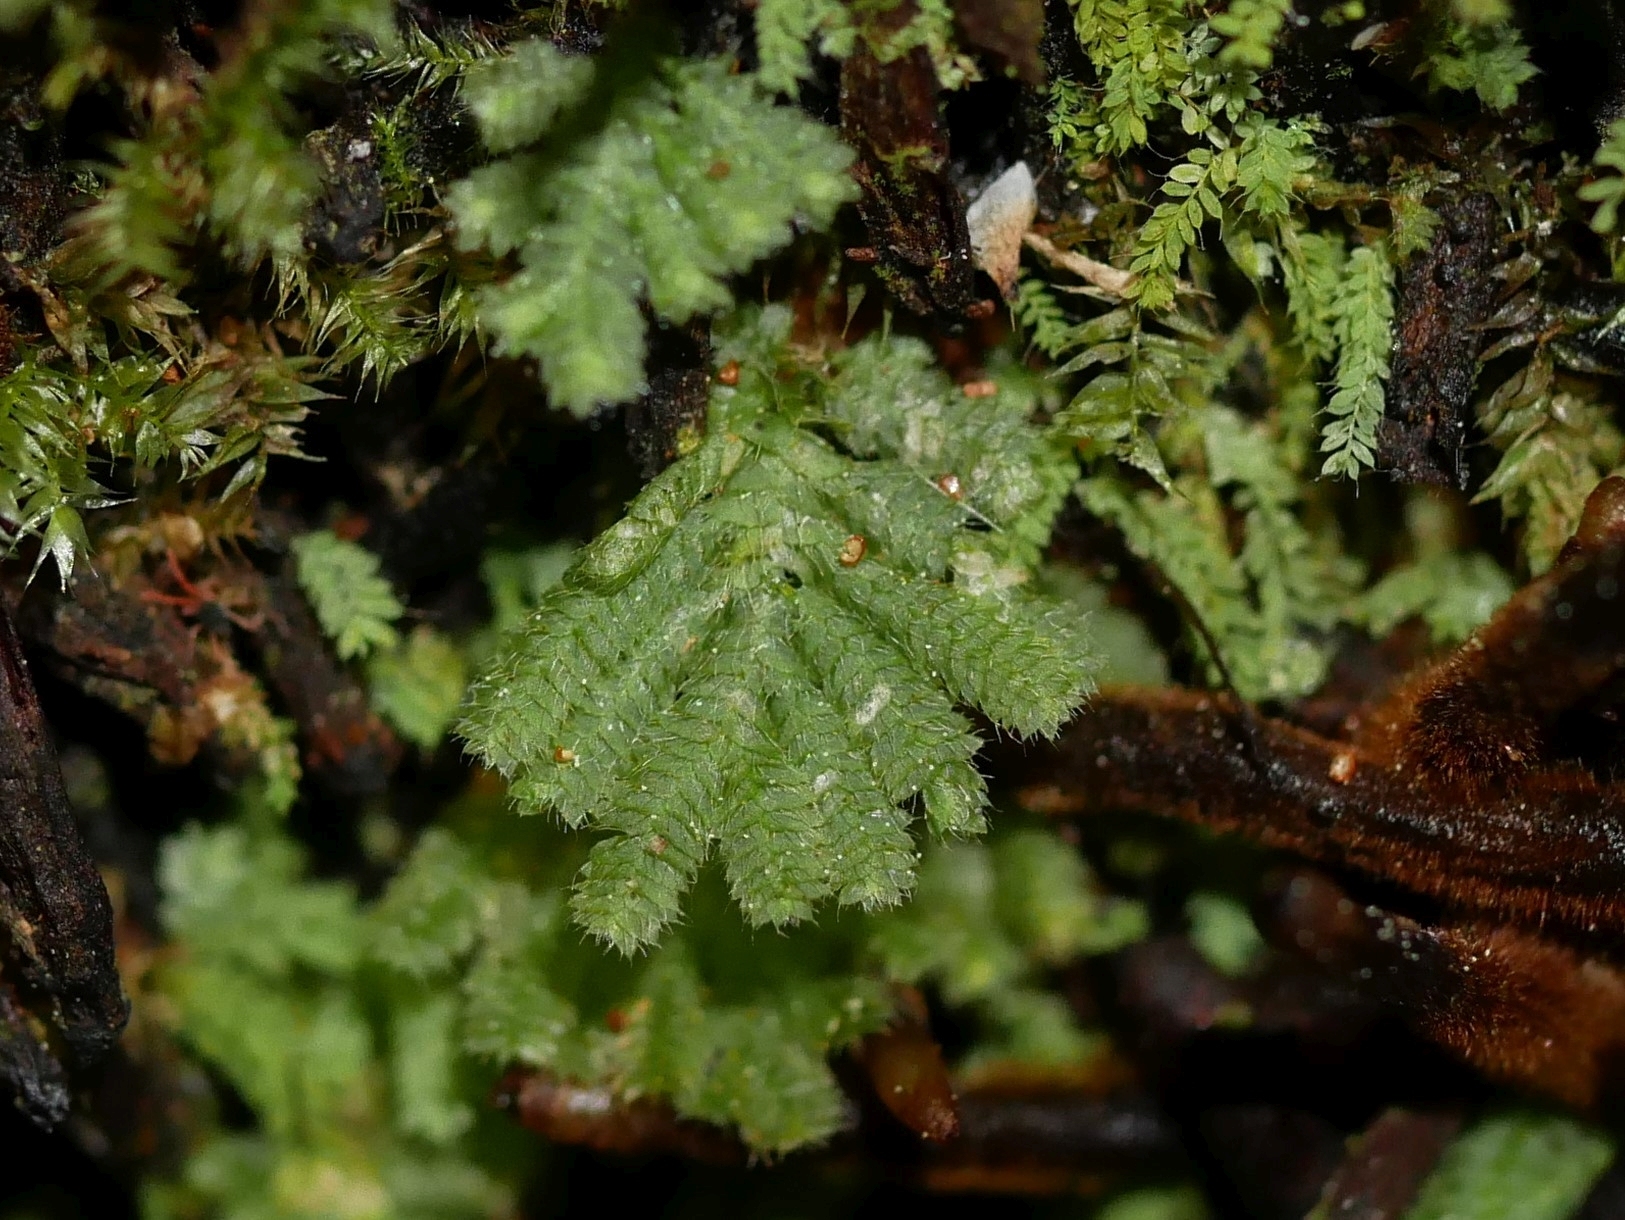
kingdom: Plantae
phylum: Bryophyta
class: Bryopsida
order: Hypopterygiales
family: Hypopterygiaceae
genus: Catharomnion
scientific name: Catharomnion ciliatum
